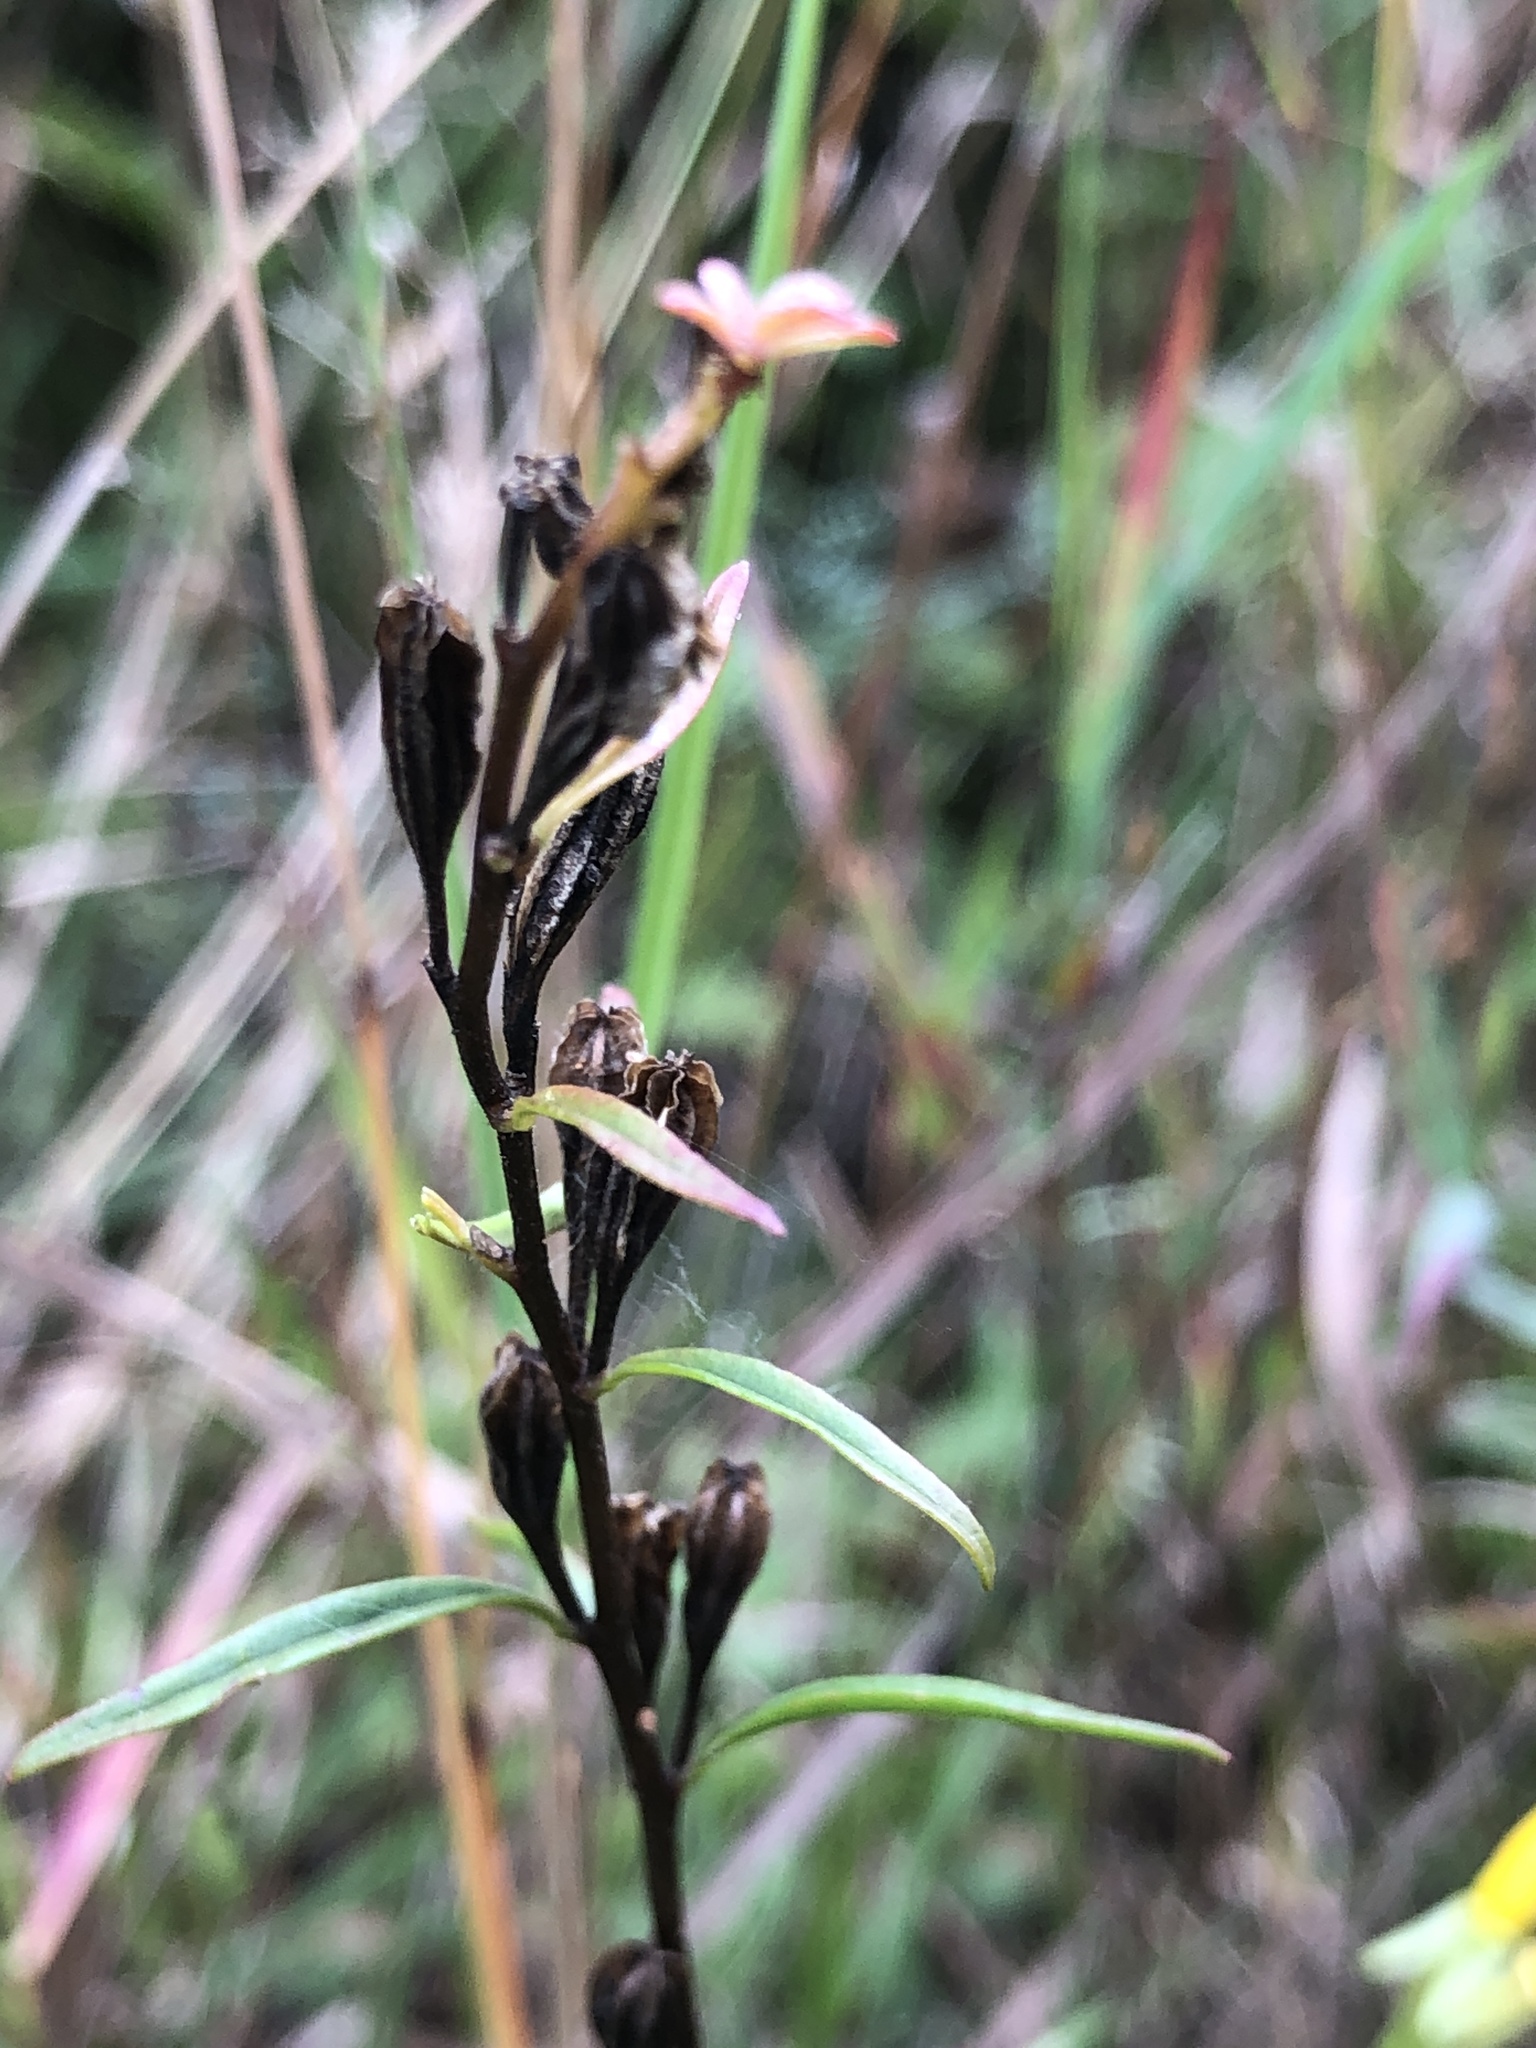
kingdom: Plantae
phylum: Tracheophyta
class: Magnoliopsida
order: Myrtales
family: Onagraceae
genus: Oenothera
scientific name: Oenothera perennis
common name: Small sundrops
